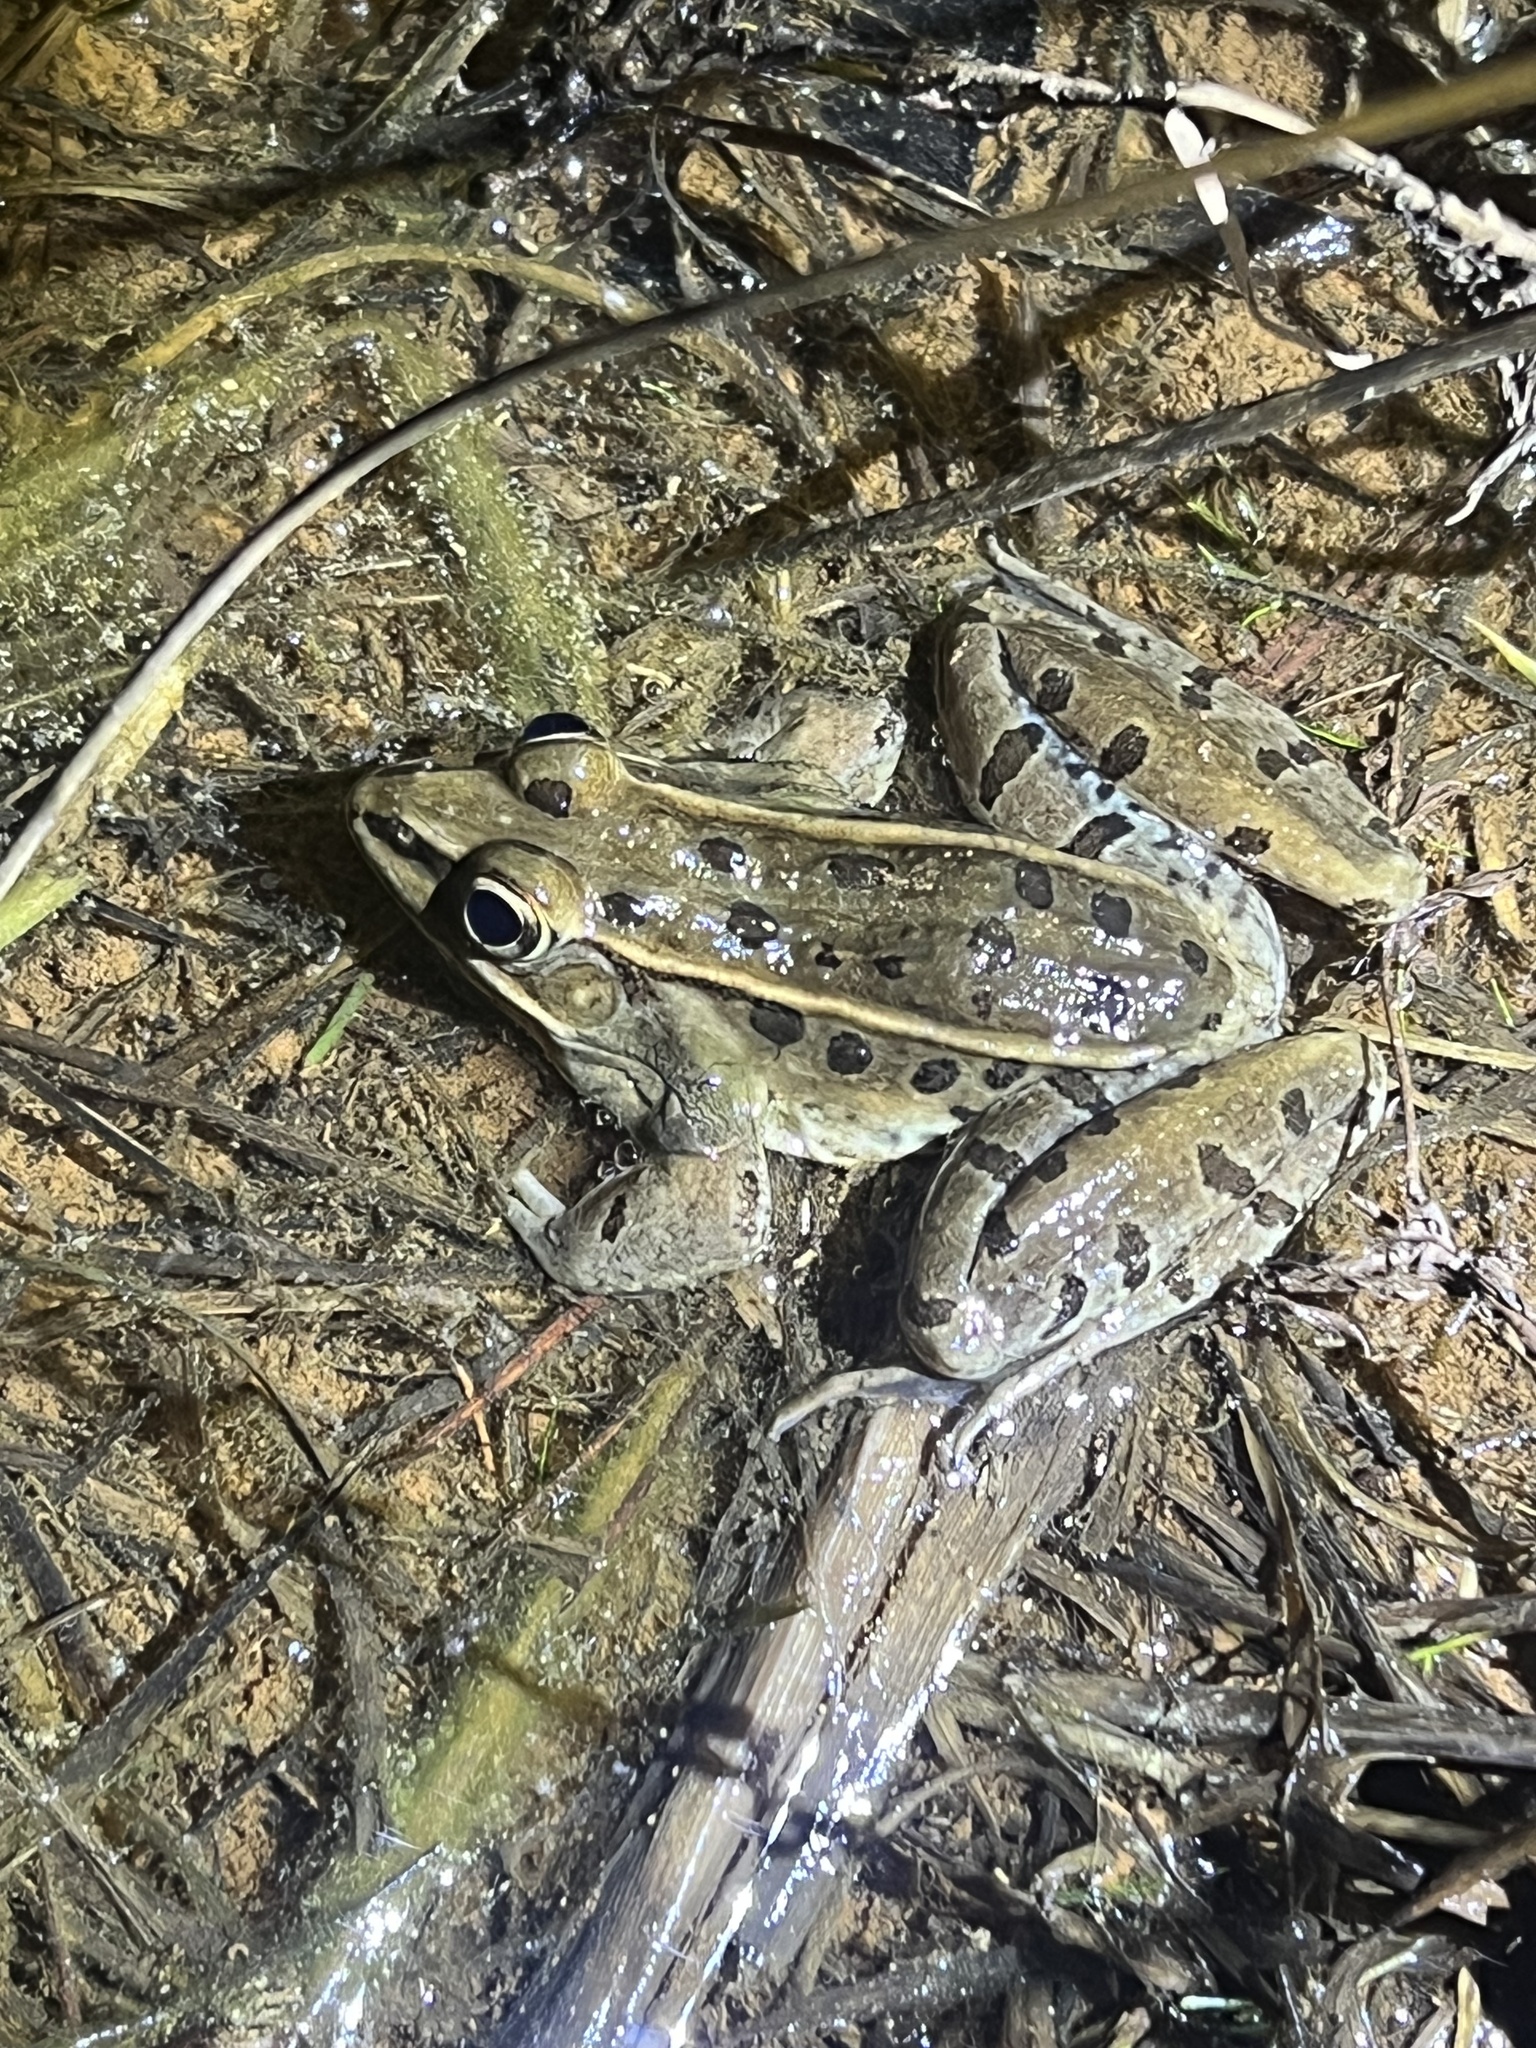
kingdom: Animalia
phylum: Chordata
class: Amphibia
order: Anura
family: Ranidae
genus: Lithobates
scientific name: Lithobates sphenocephalus
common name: Southern leopard frog
